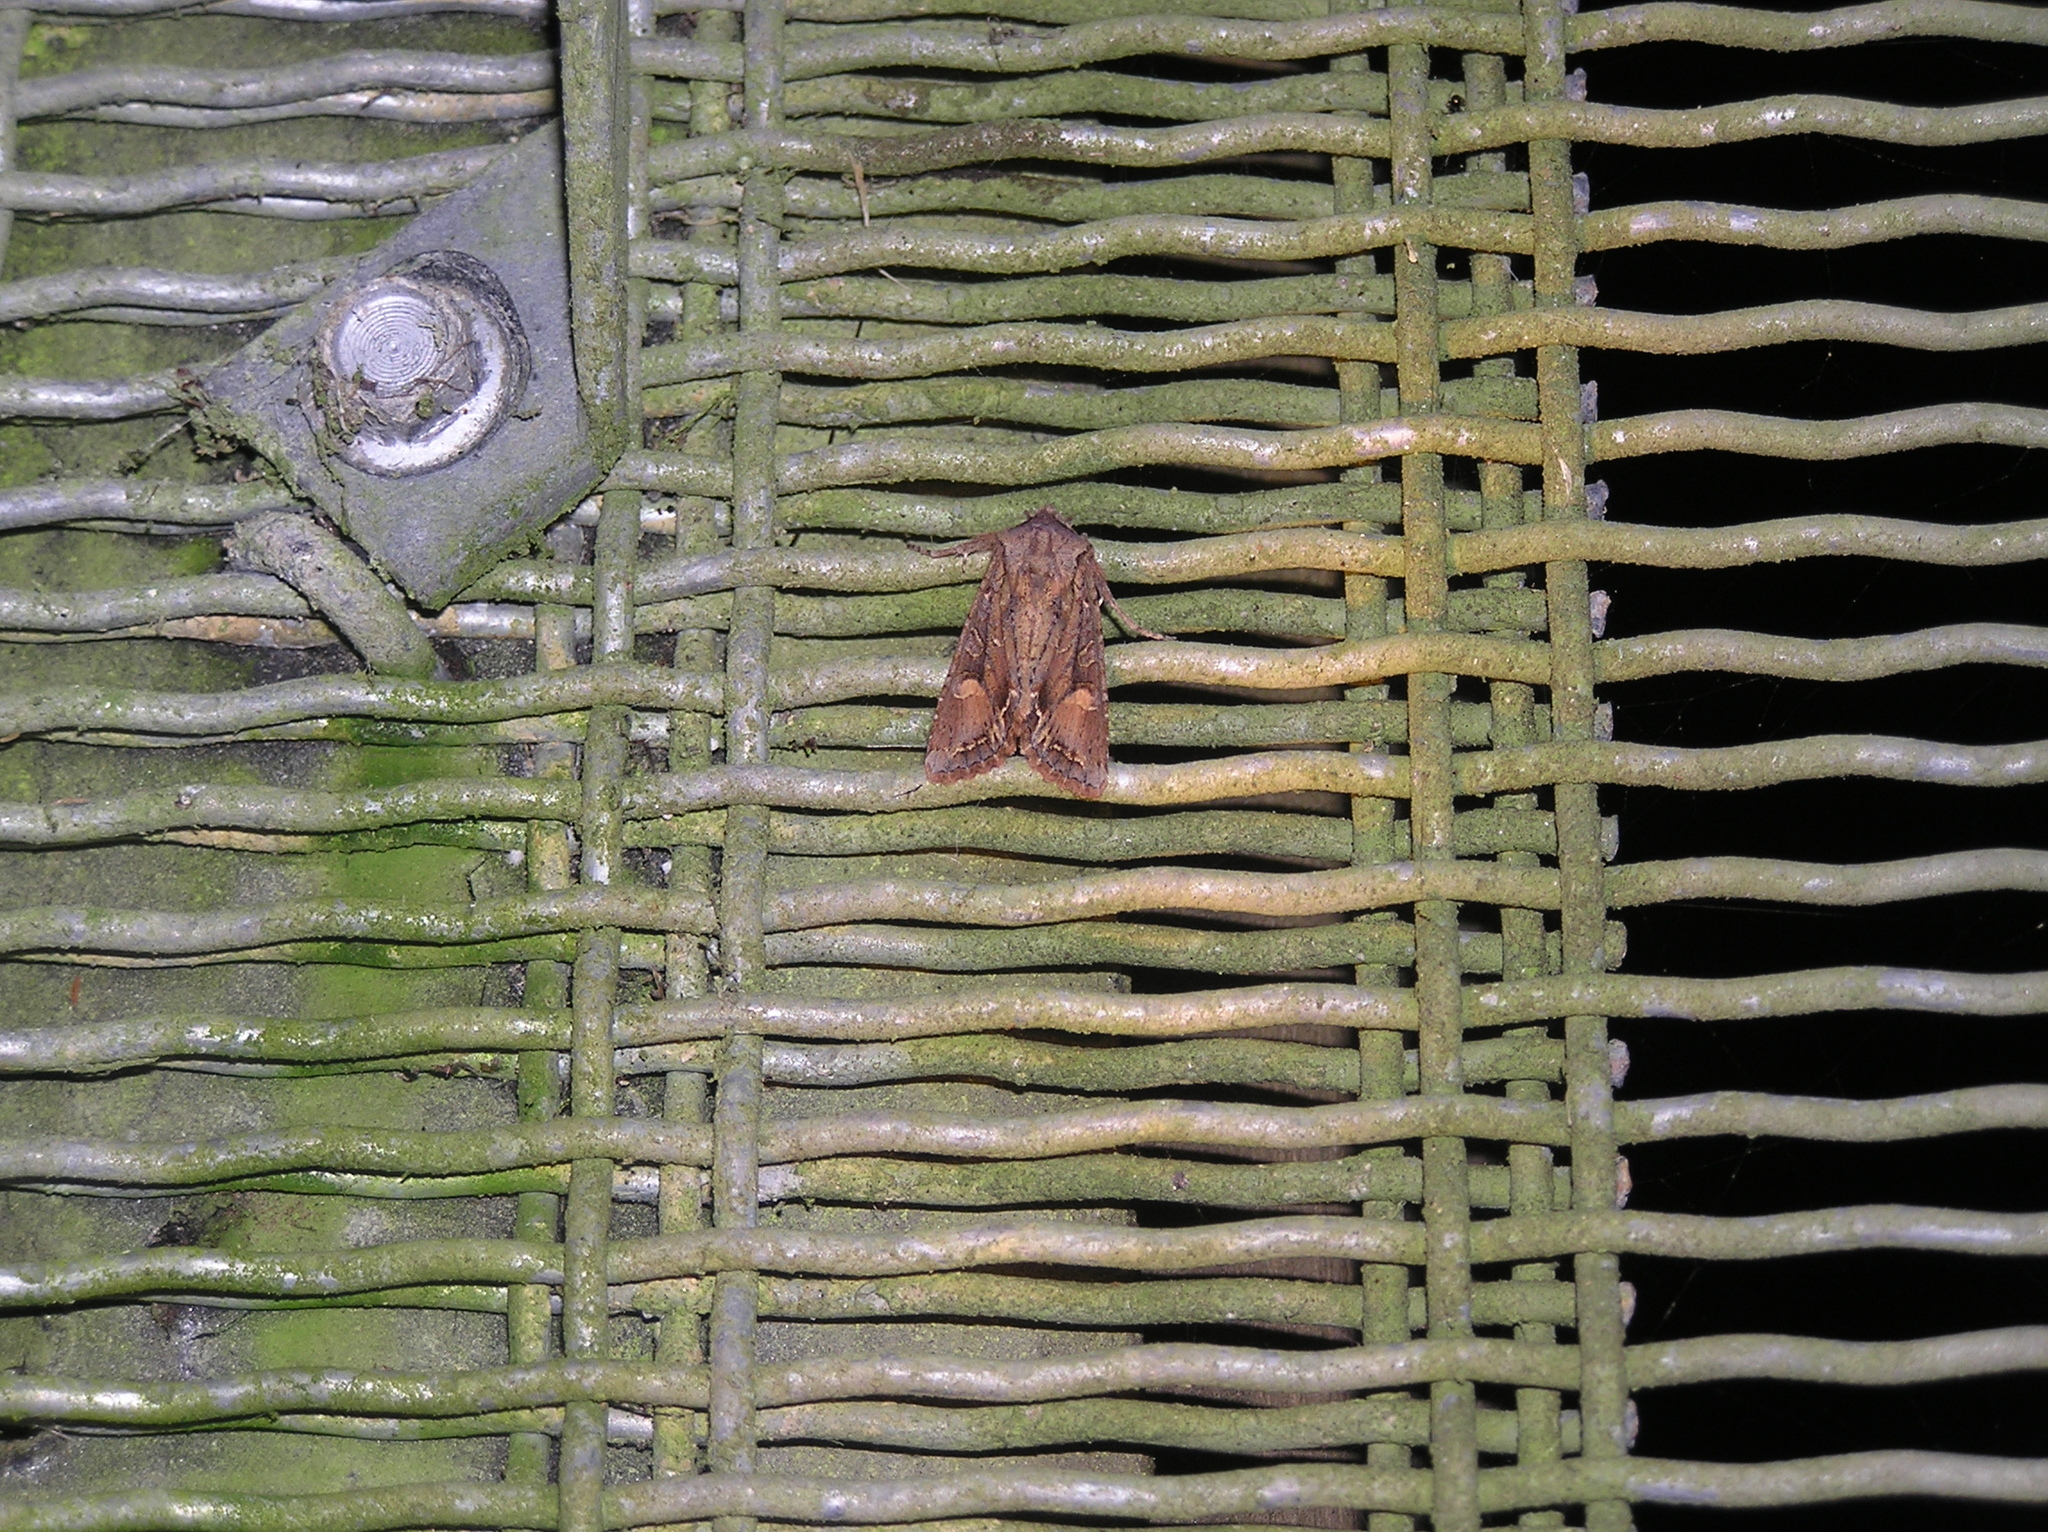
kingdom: Animalia
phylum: Arthropoda
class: Insecta
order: Lepidoptera
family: Noctuidae
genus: Ichneutica
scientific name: Ichneutica
